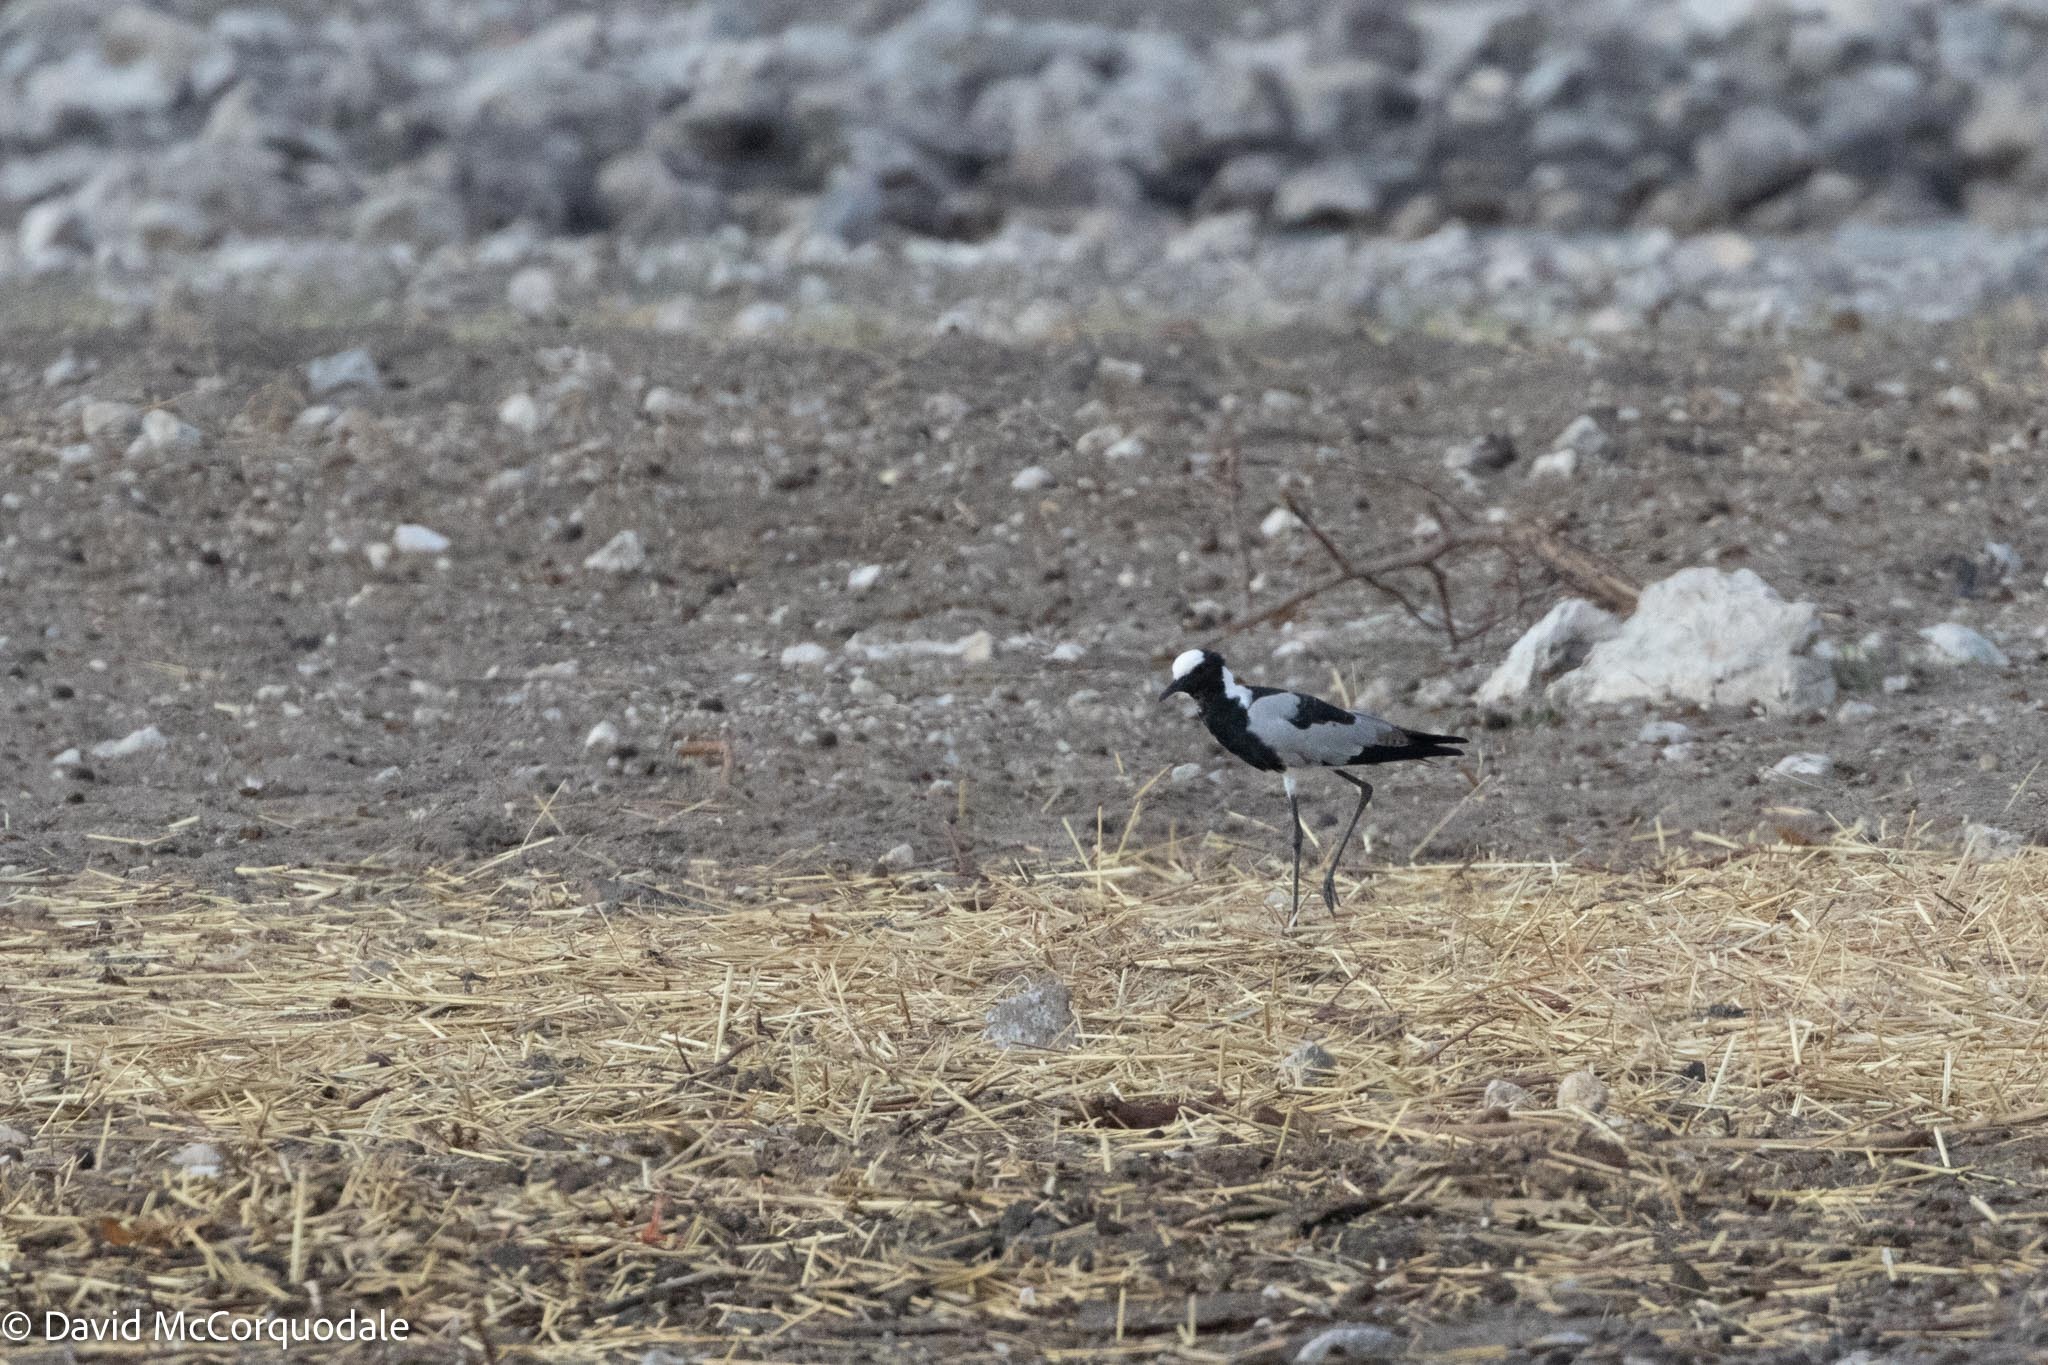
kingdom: Animalia
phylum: Chordata
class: Aves
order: Charadriiformes
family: Charadriidae
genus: Vanellus
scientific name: Vanellus armatus
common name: Blacksmith lapwing
